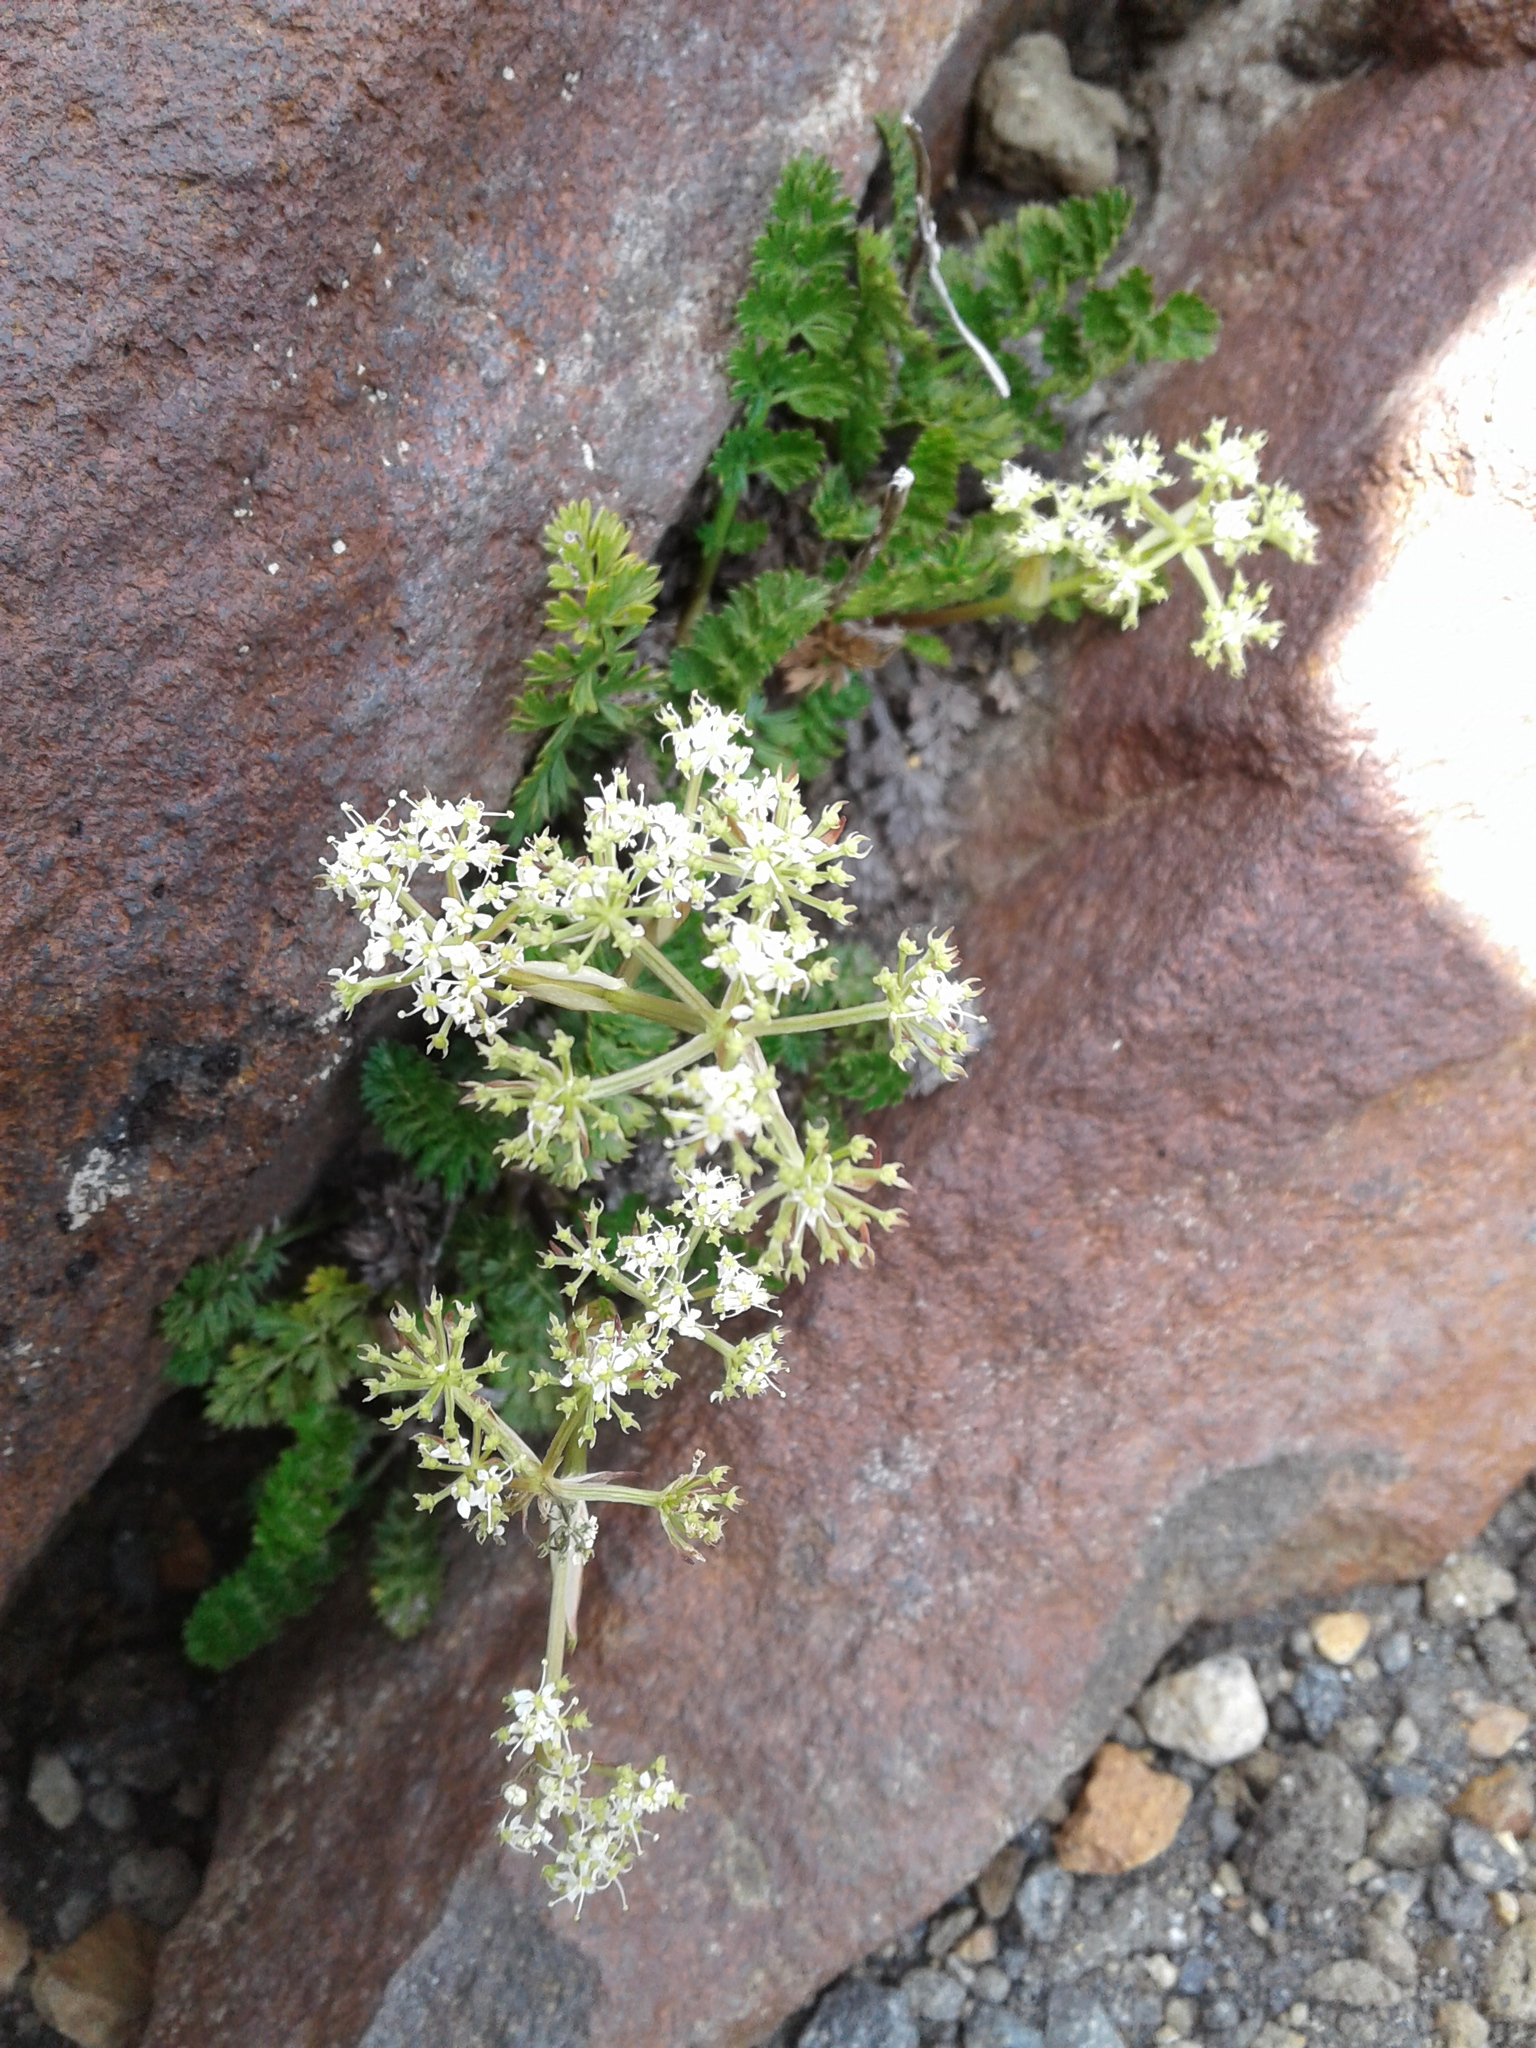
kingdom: Plantae
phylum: Tracheophyta
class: Magnoliopsida
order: Apiales
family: Apiaceae
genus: Anisotome
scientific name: Anisotome aromatica
